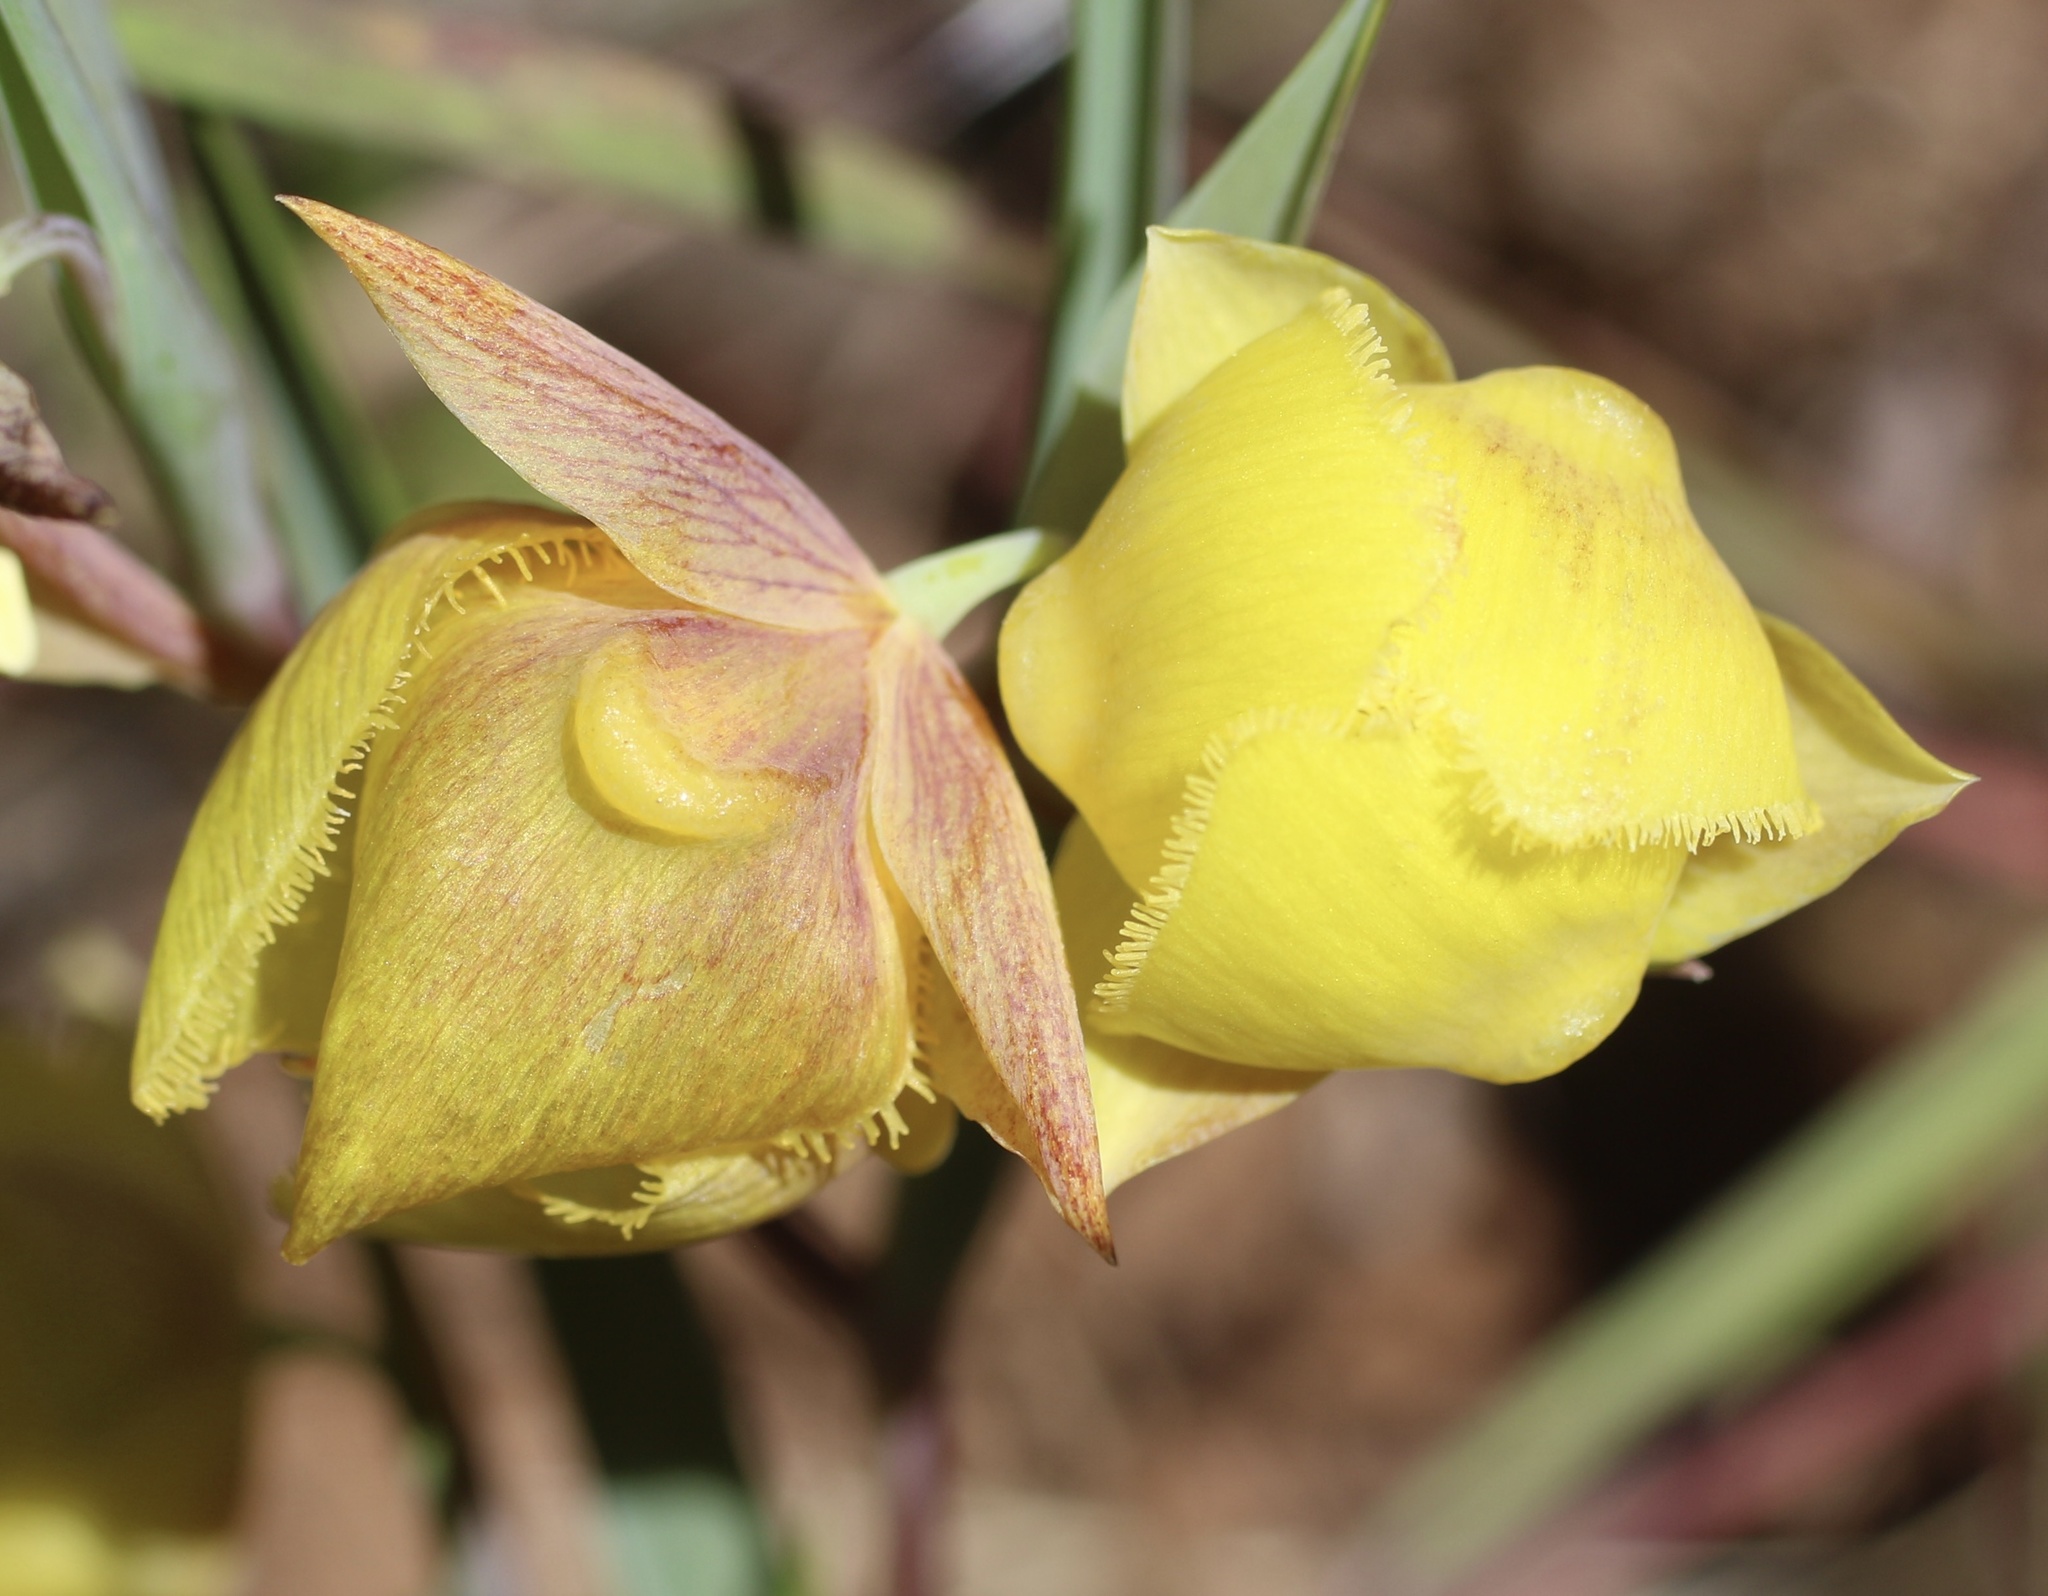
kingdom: Plantae
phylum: Tracheophyta
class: Liliopsida
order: Liliales
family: Liliaceae
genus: Calochortus
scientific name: Calochortus pulchellus
